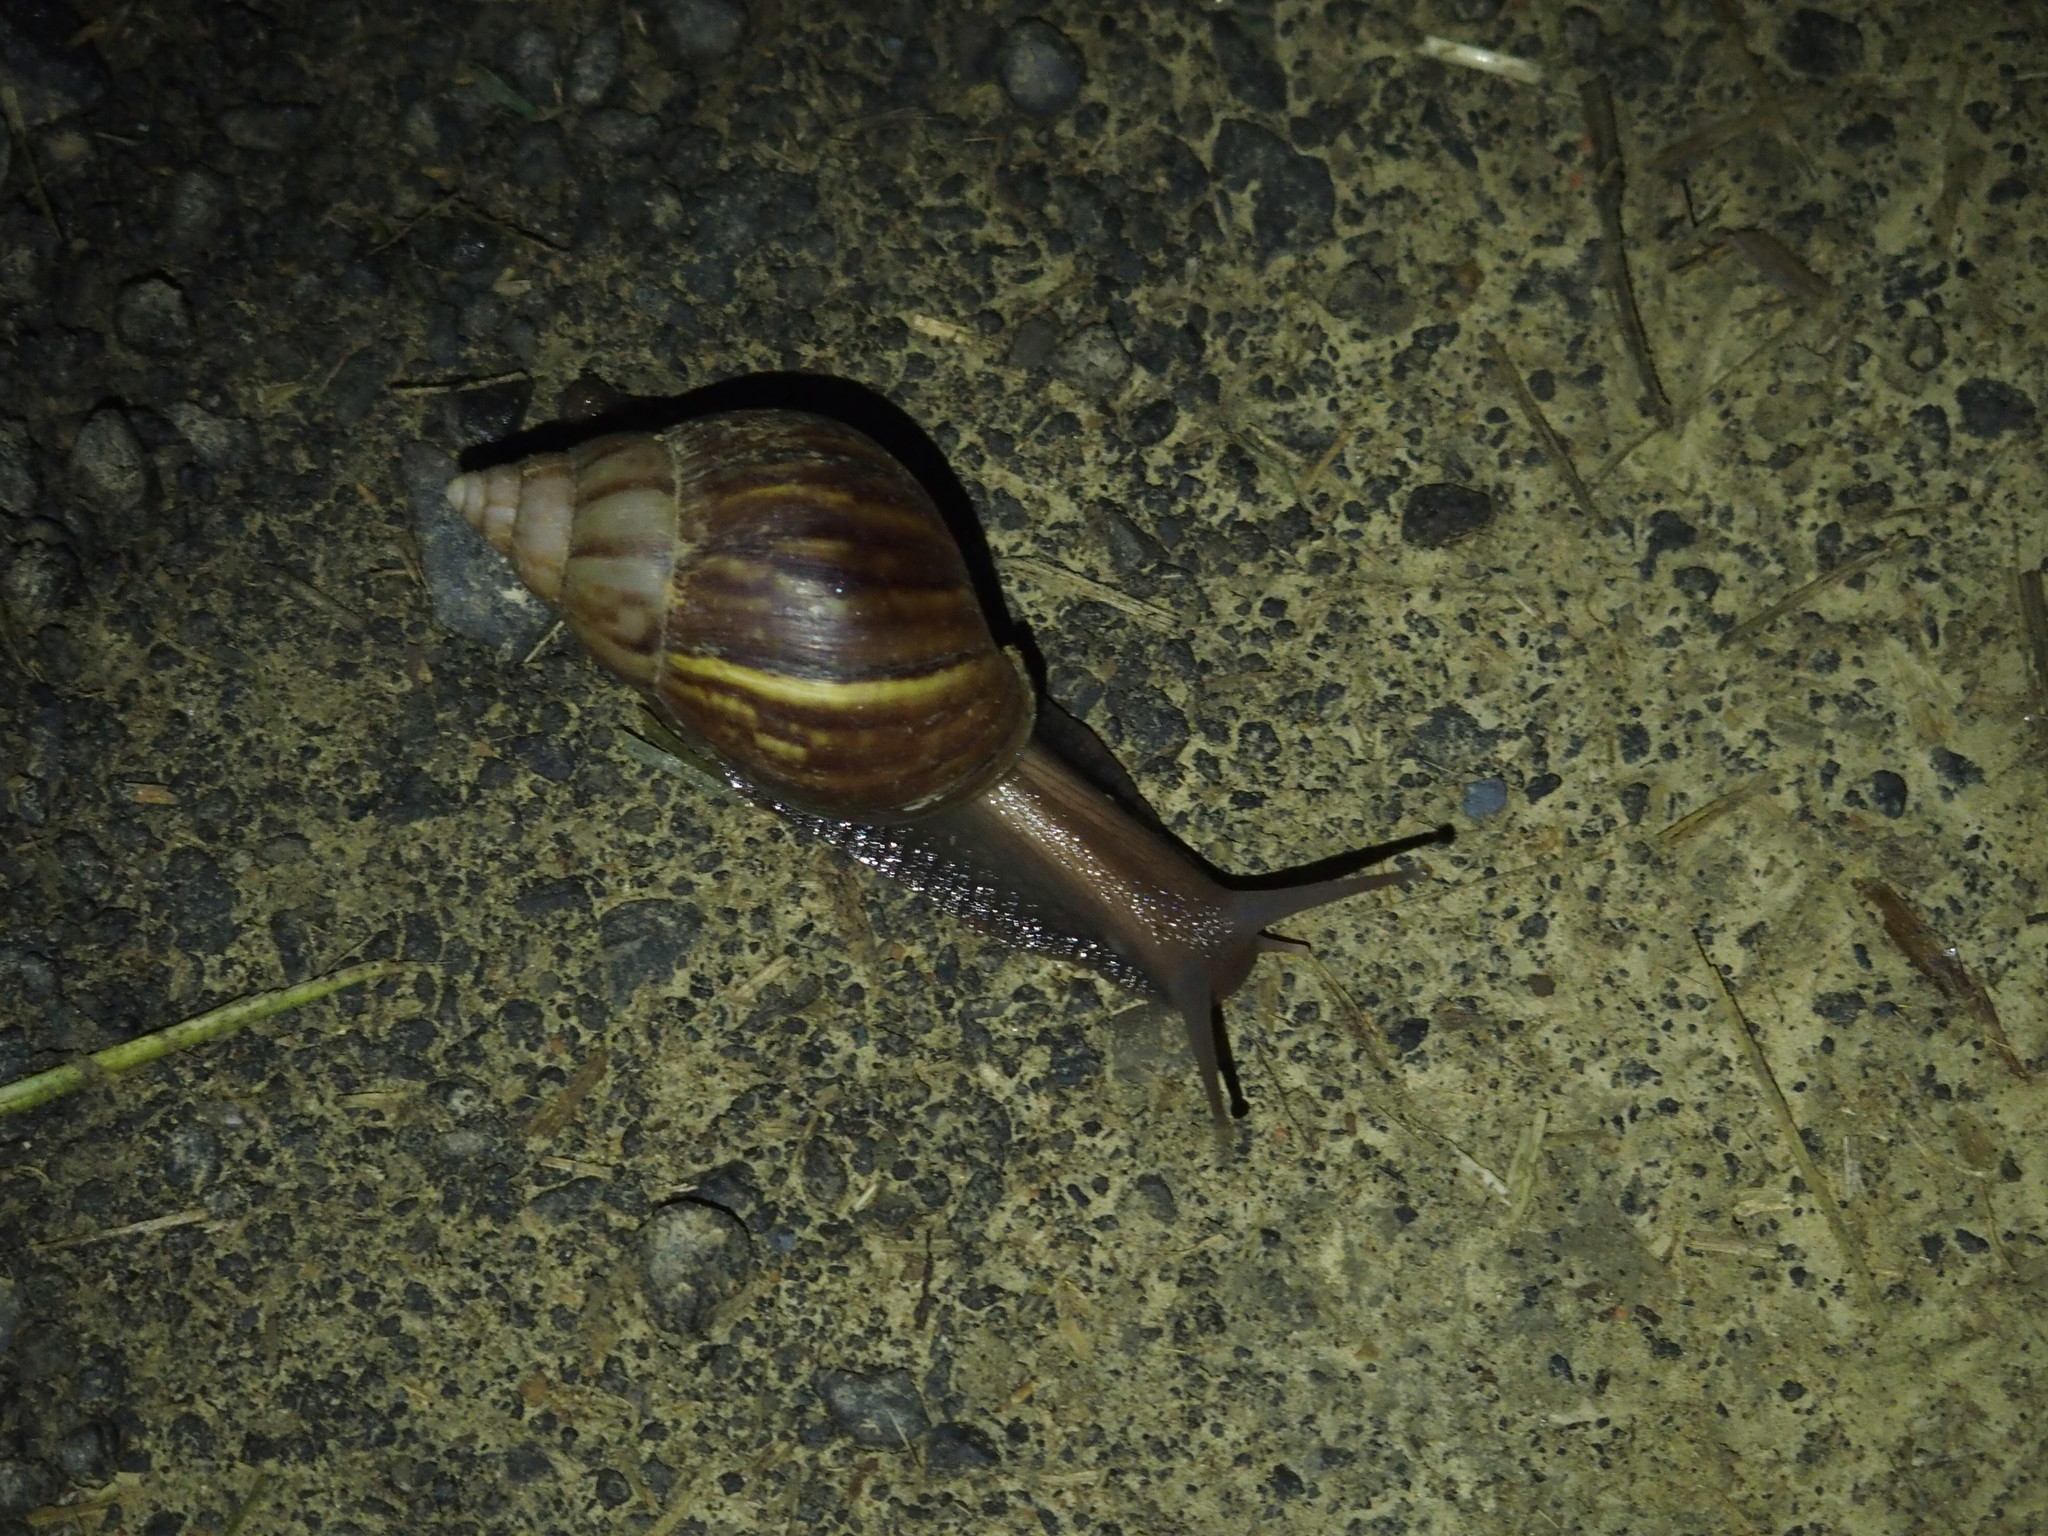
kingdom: Animalia
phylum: Mollusca
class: Gastropoda
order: Stylommatophora
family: Achatinidae
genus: Lissachatina
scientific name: Lissachatina fulica
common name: Giant african snail
